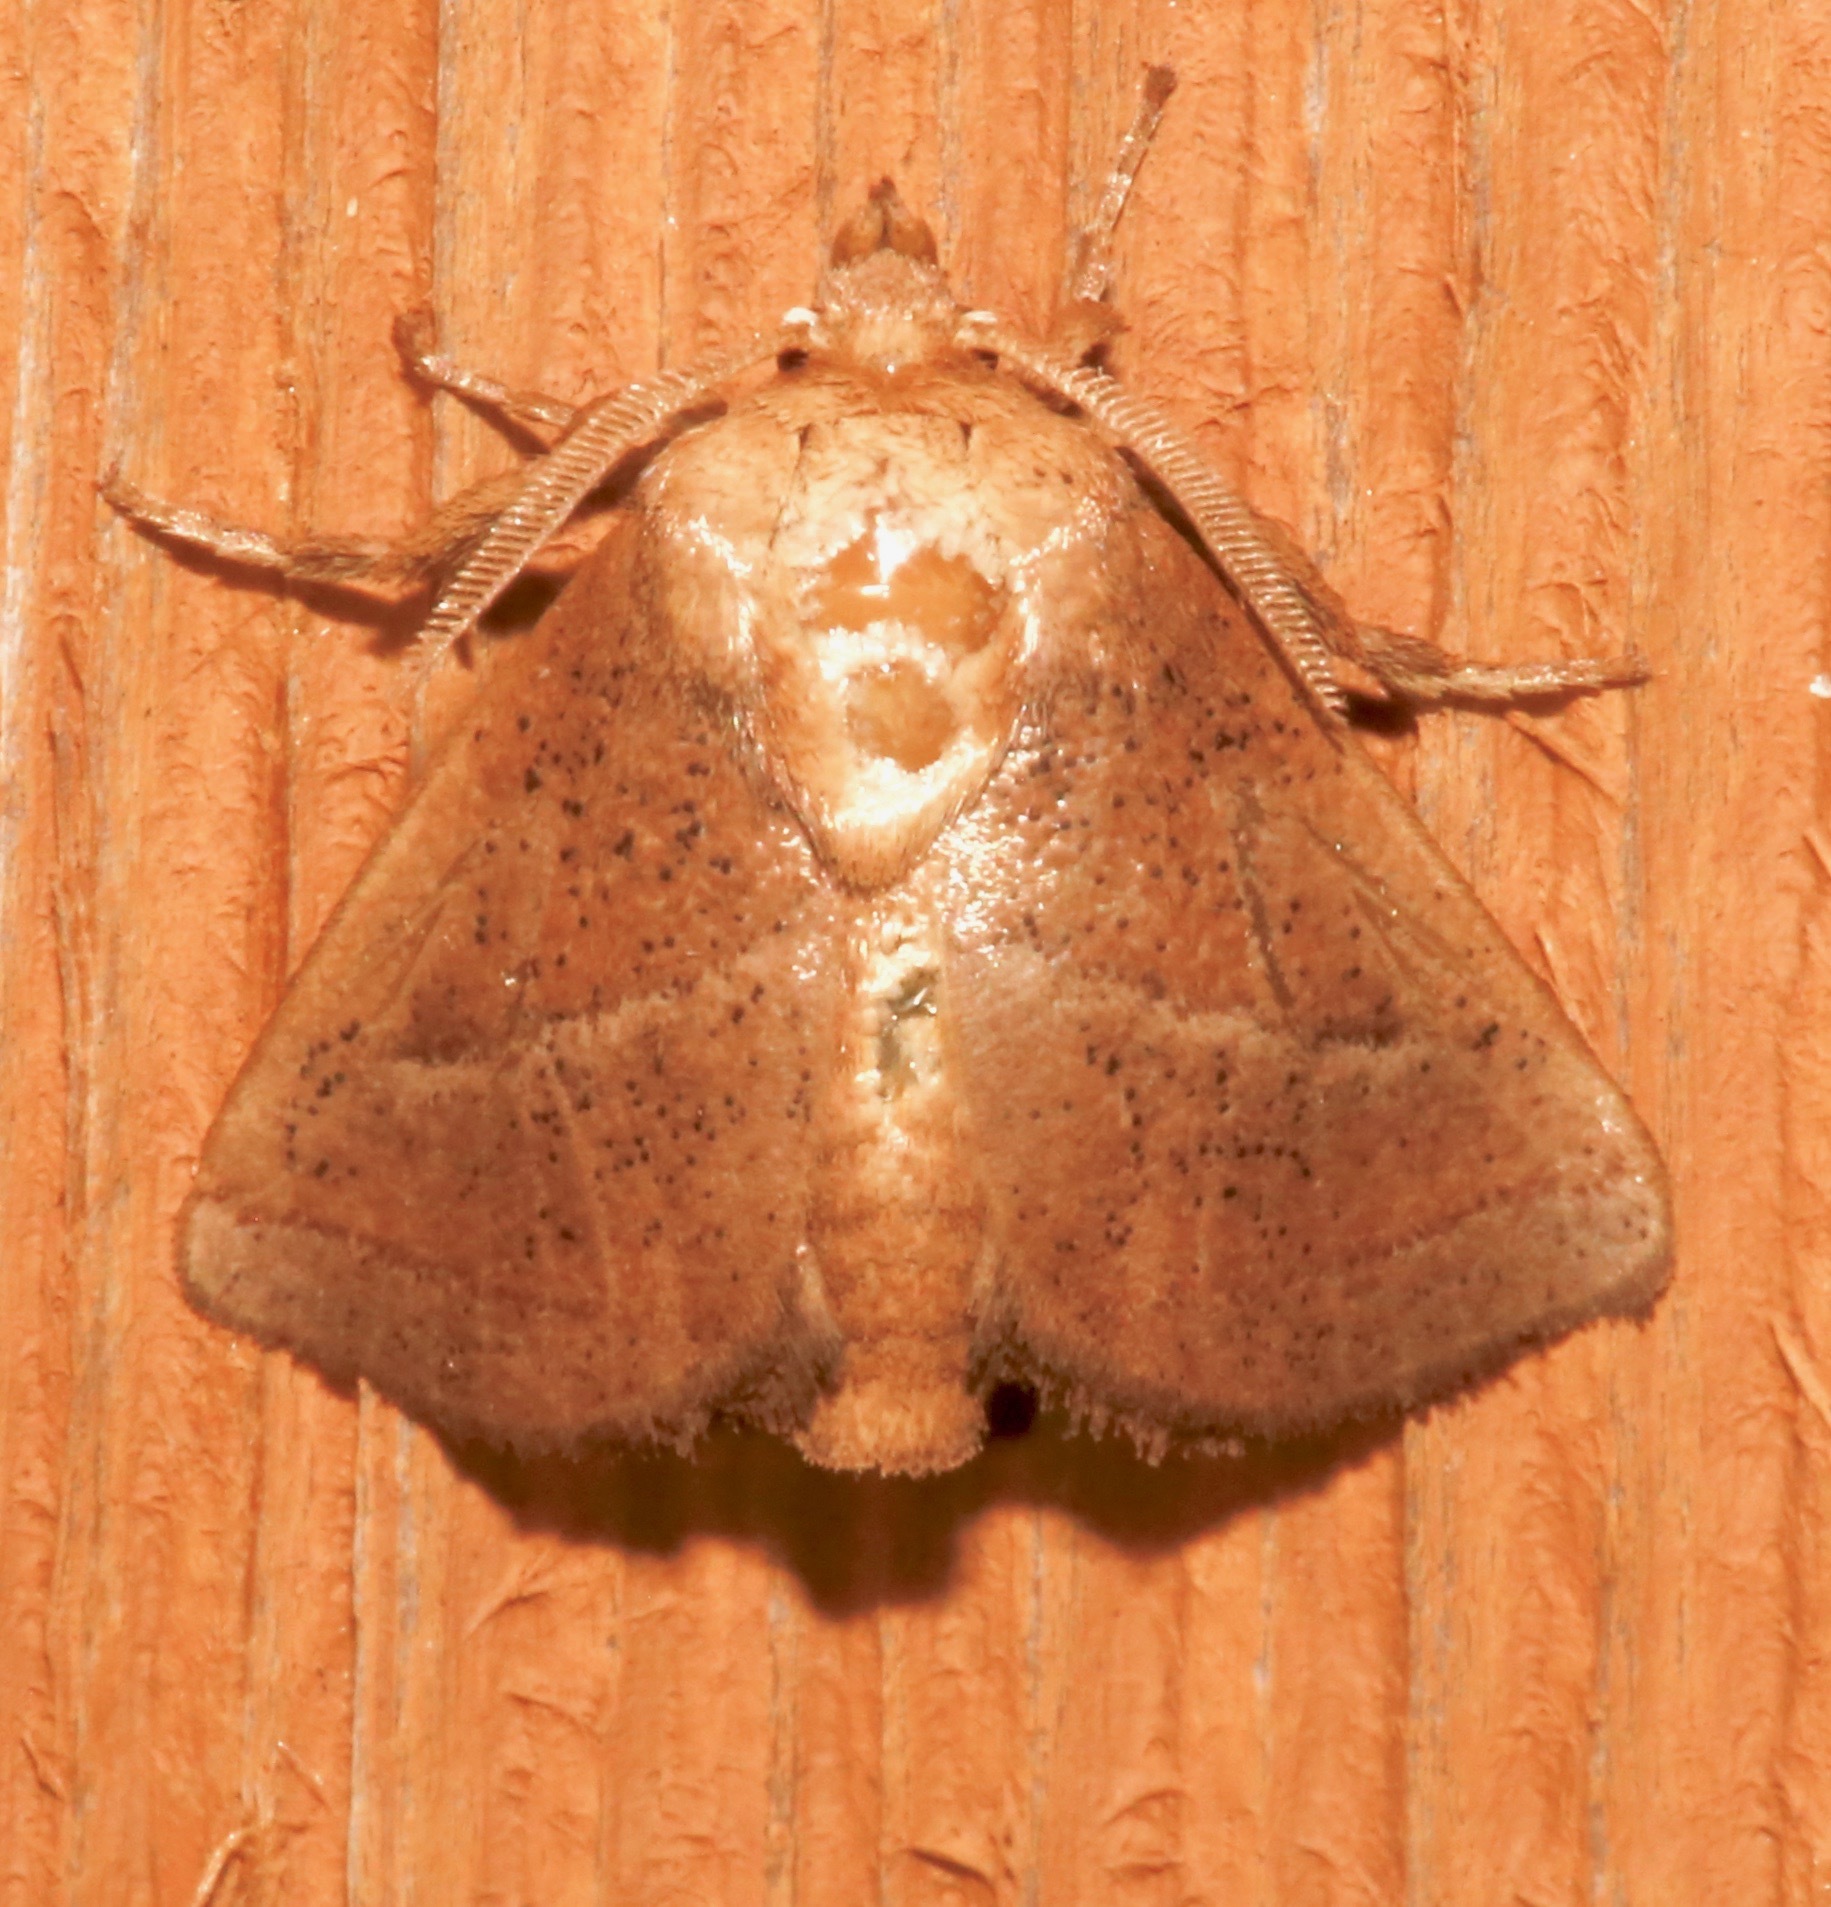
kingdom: Animalia
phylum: Arthropoda
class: Insecta
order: Lepidoptera
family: Limacodidae
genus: Natada
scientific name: Natada nasoni
